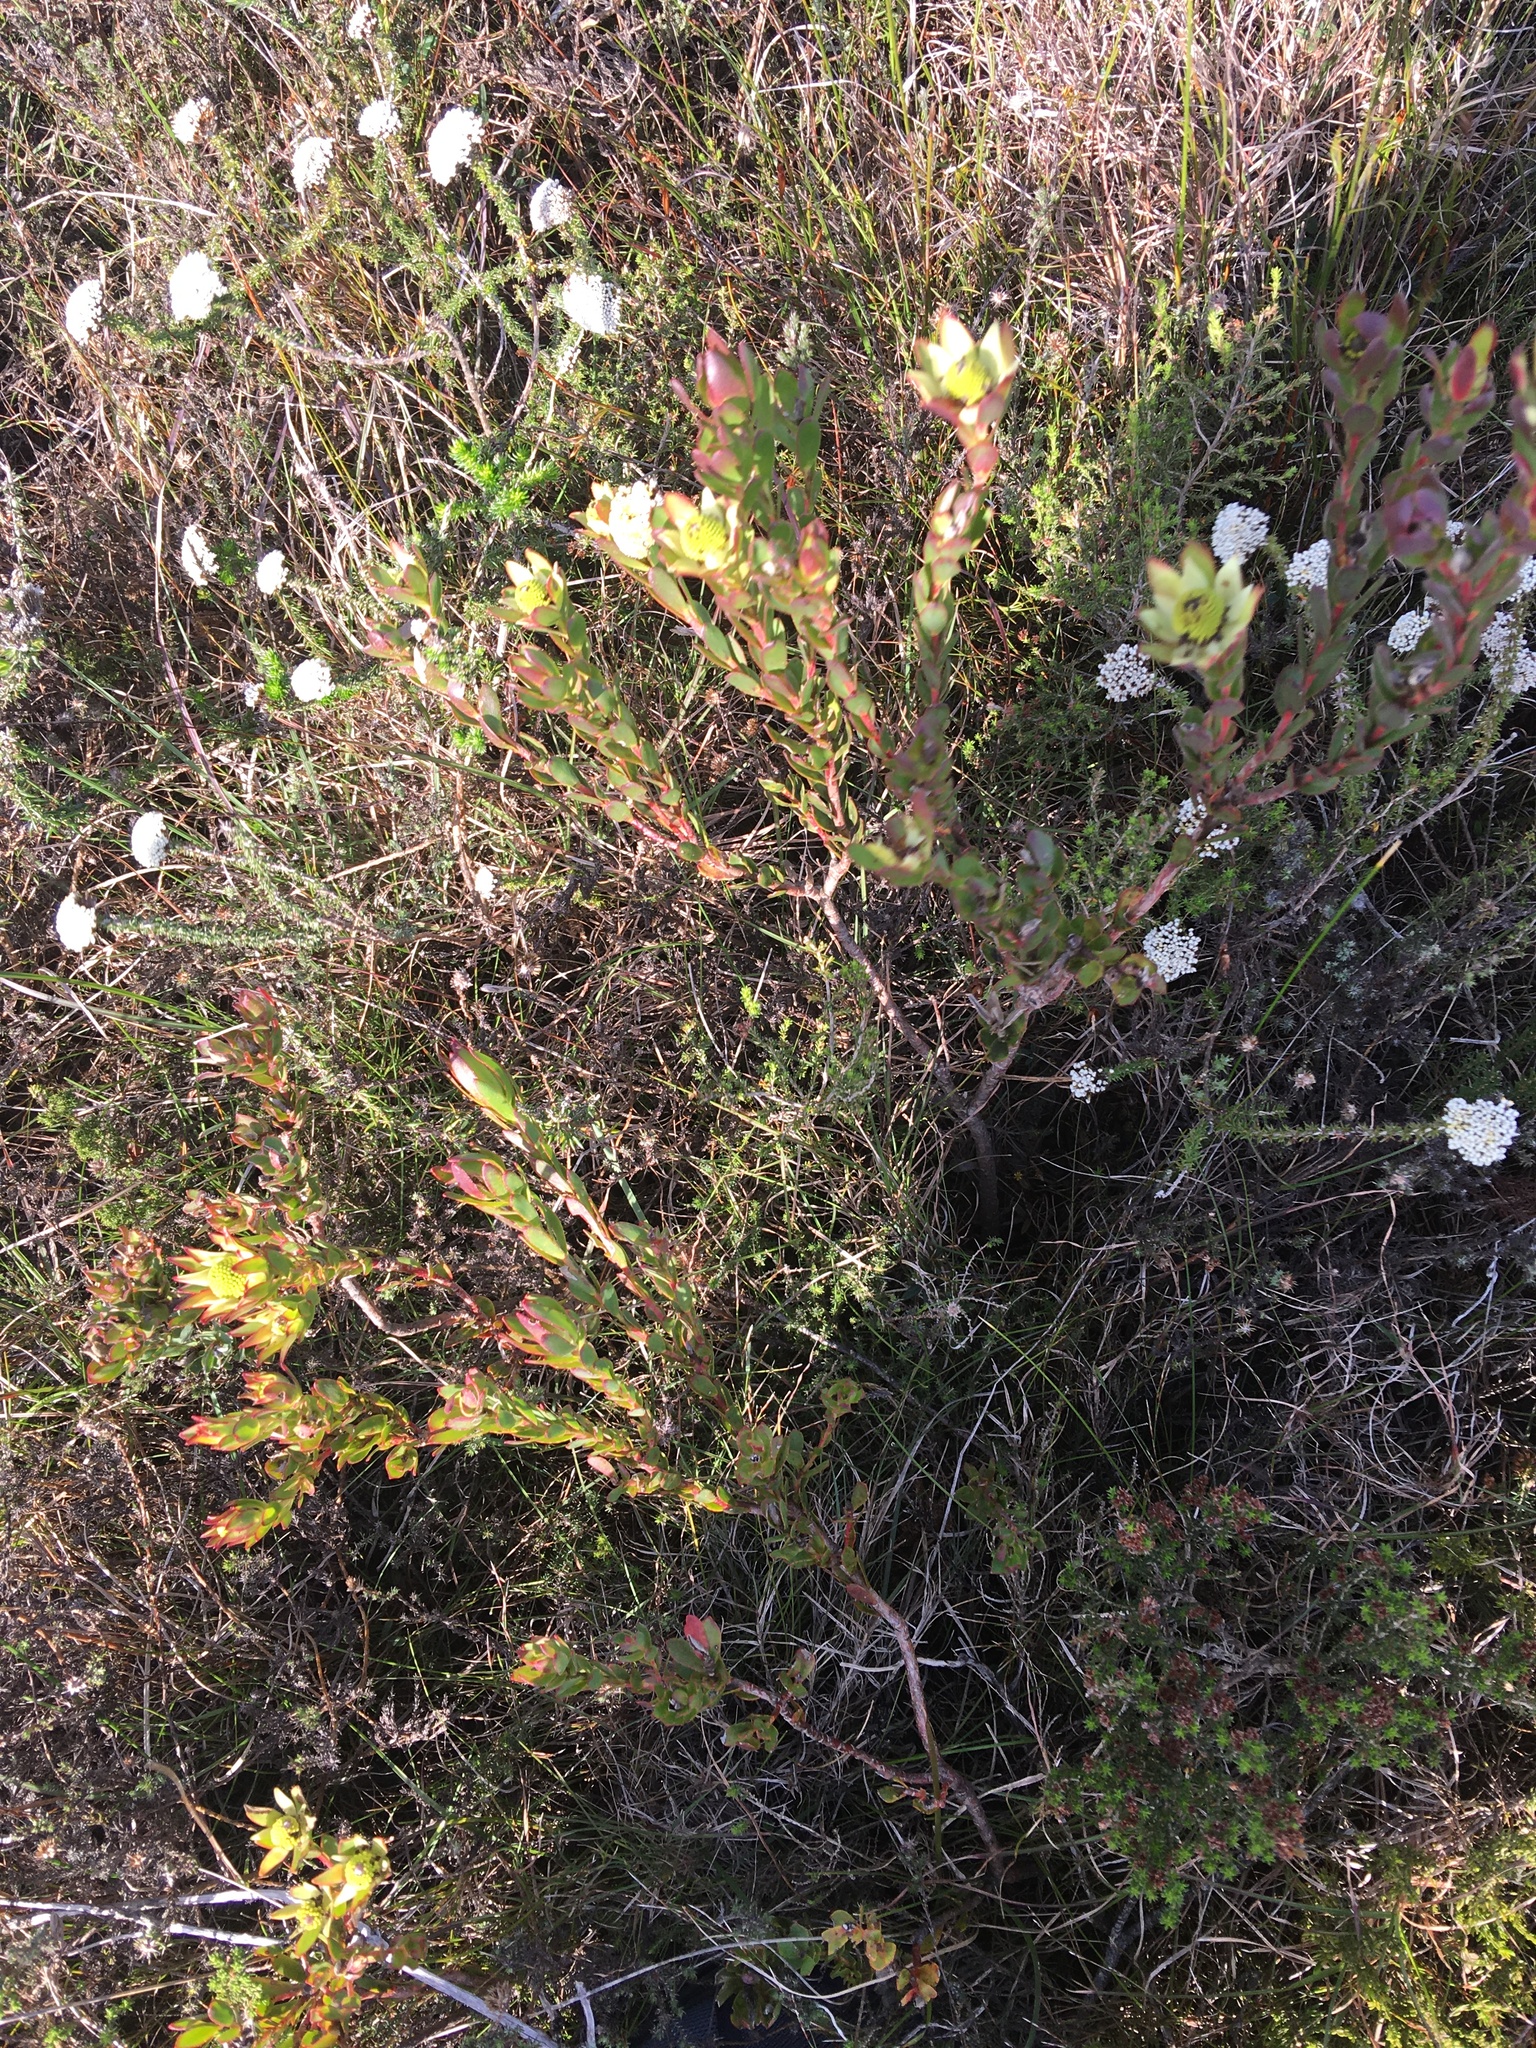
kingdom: Plantae
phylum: Tracheophyta
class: Magnoliopsida
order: Proteales
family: Proteaceae
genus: Leucadendron
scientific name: Leucadendron stelligerum
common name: Agulhas conebush
